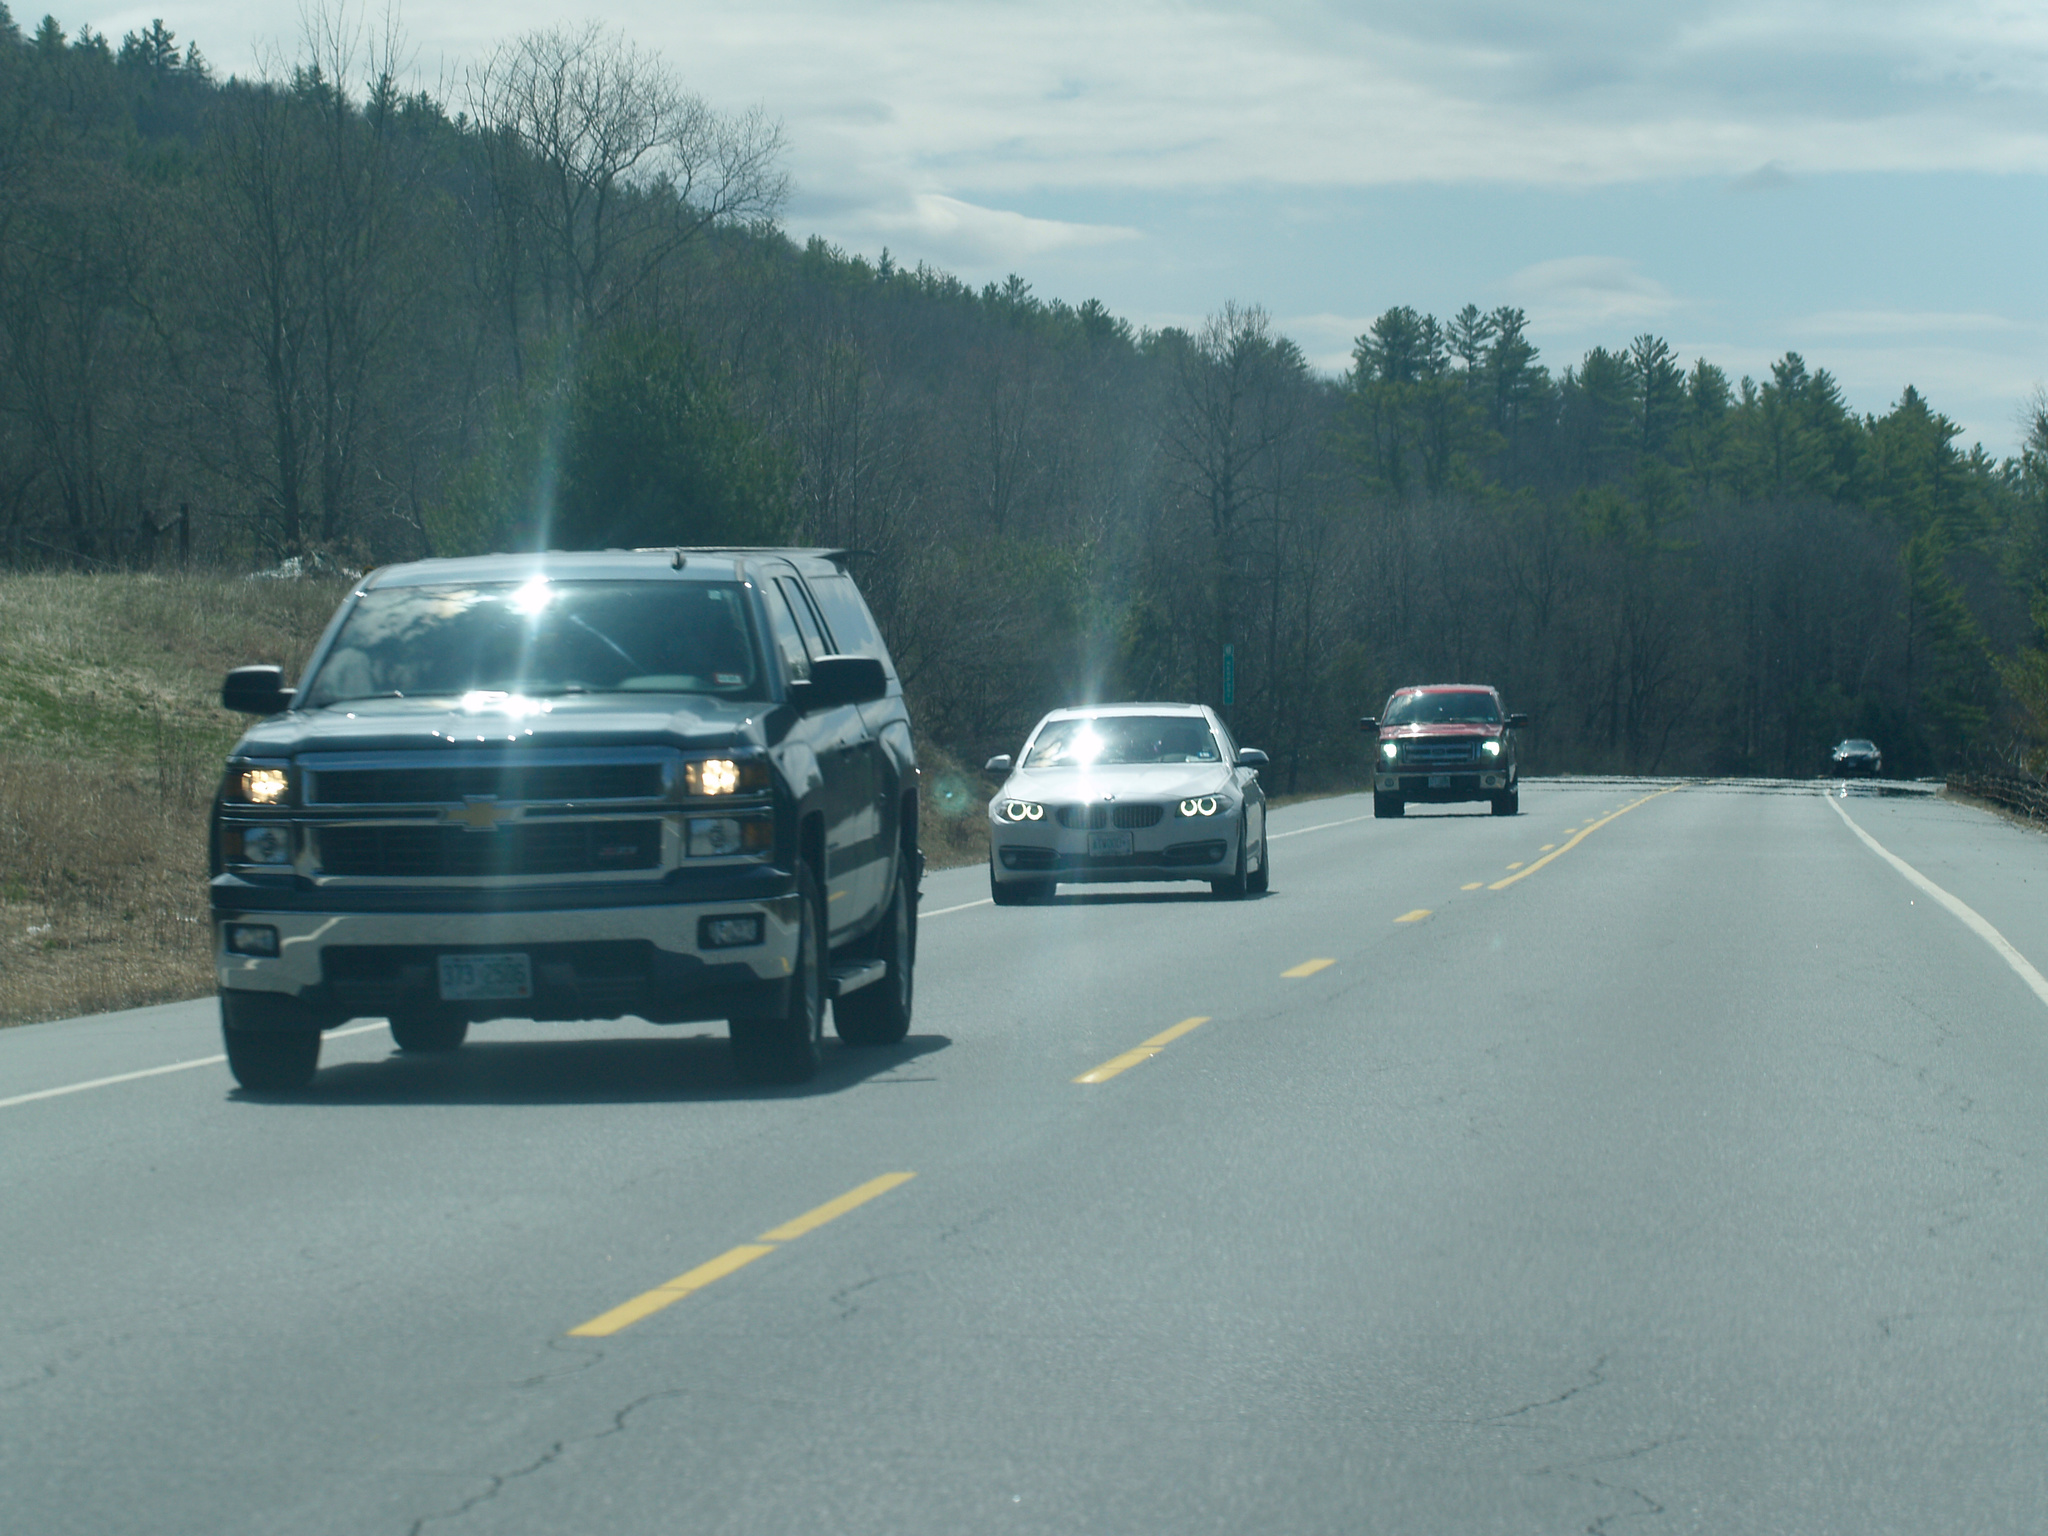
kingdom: Plantae
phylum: Tracheophyta
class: Pinopsida
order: Pinales
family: Pinaceae
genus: Pinus
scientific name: Pinus strobus
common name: Weymouth pine
